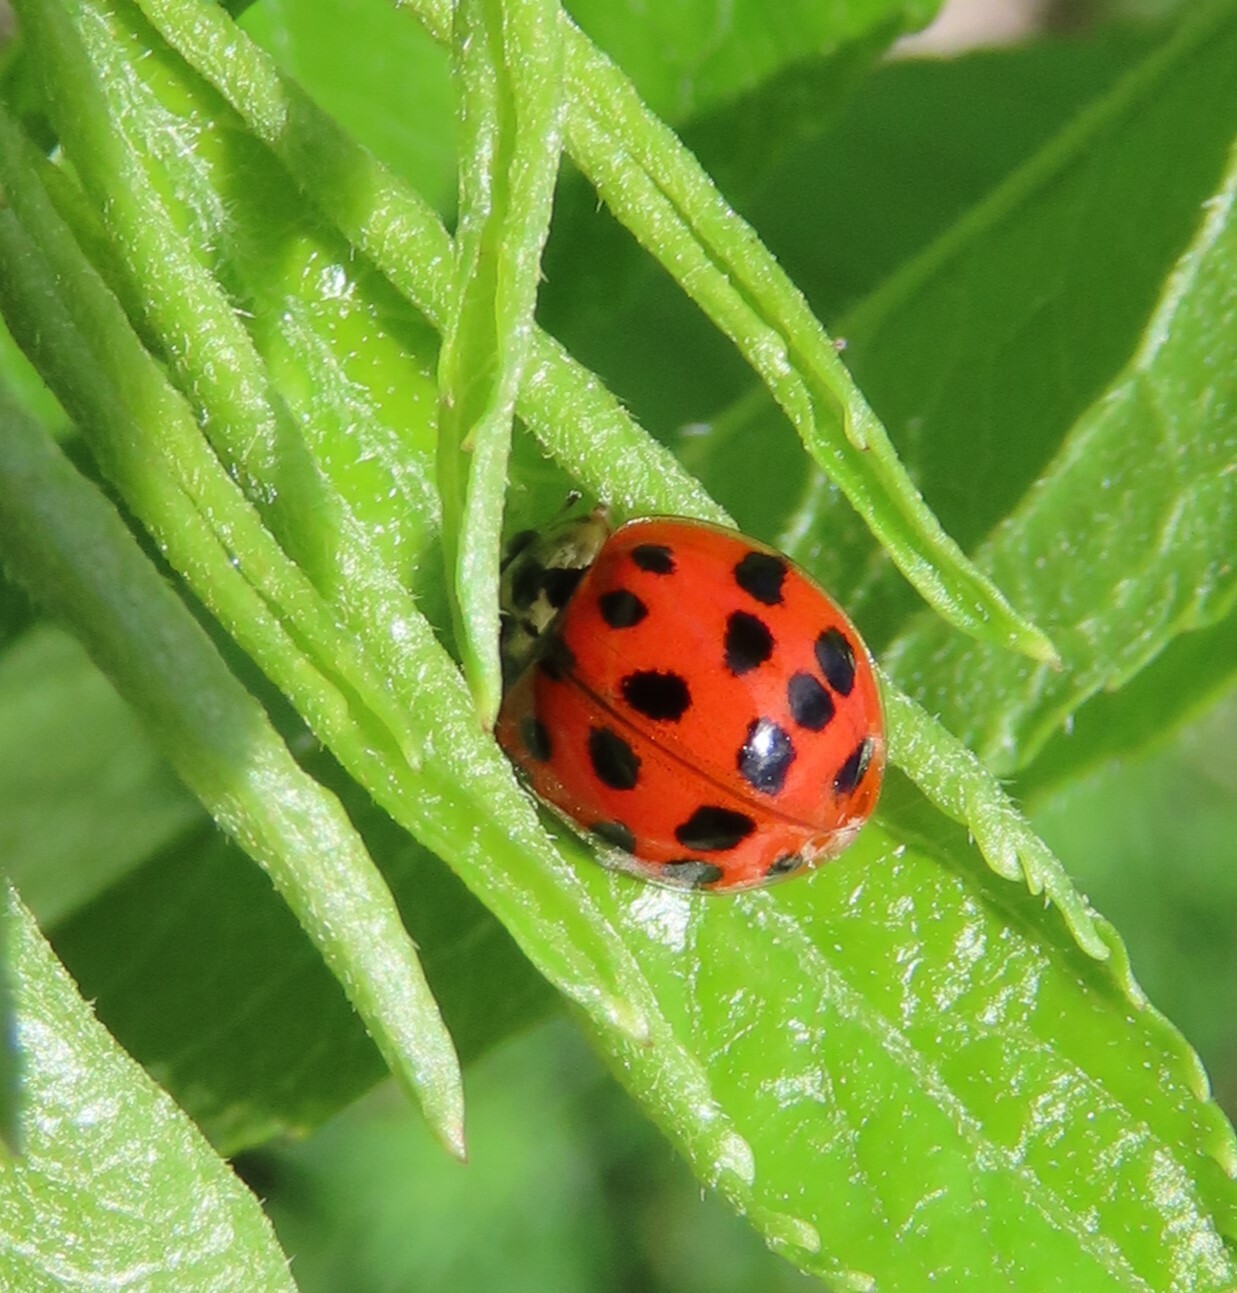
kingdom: Animalia
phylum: Arthropoda
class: Insecta
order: Coleoptera
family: Coccinellidae
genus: Harmonia
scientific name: Harmonia axyridis
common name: Harlequin ladybird
